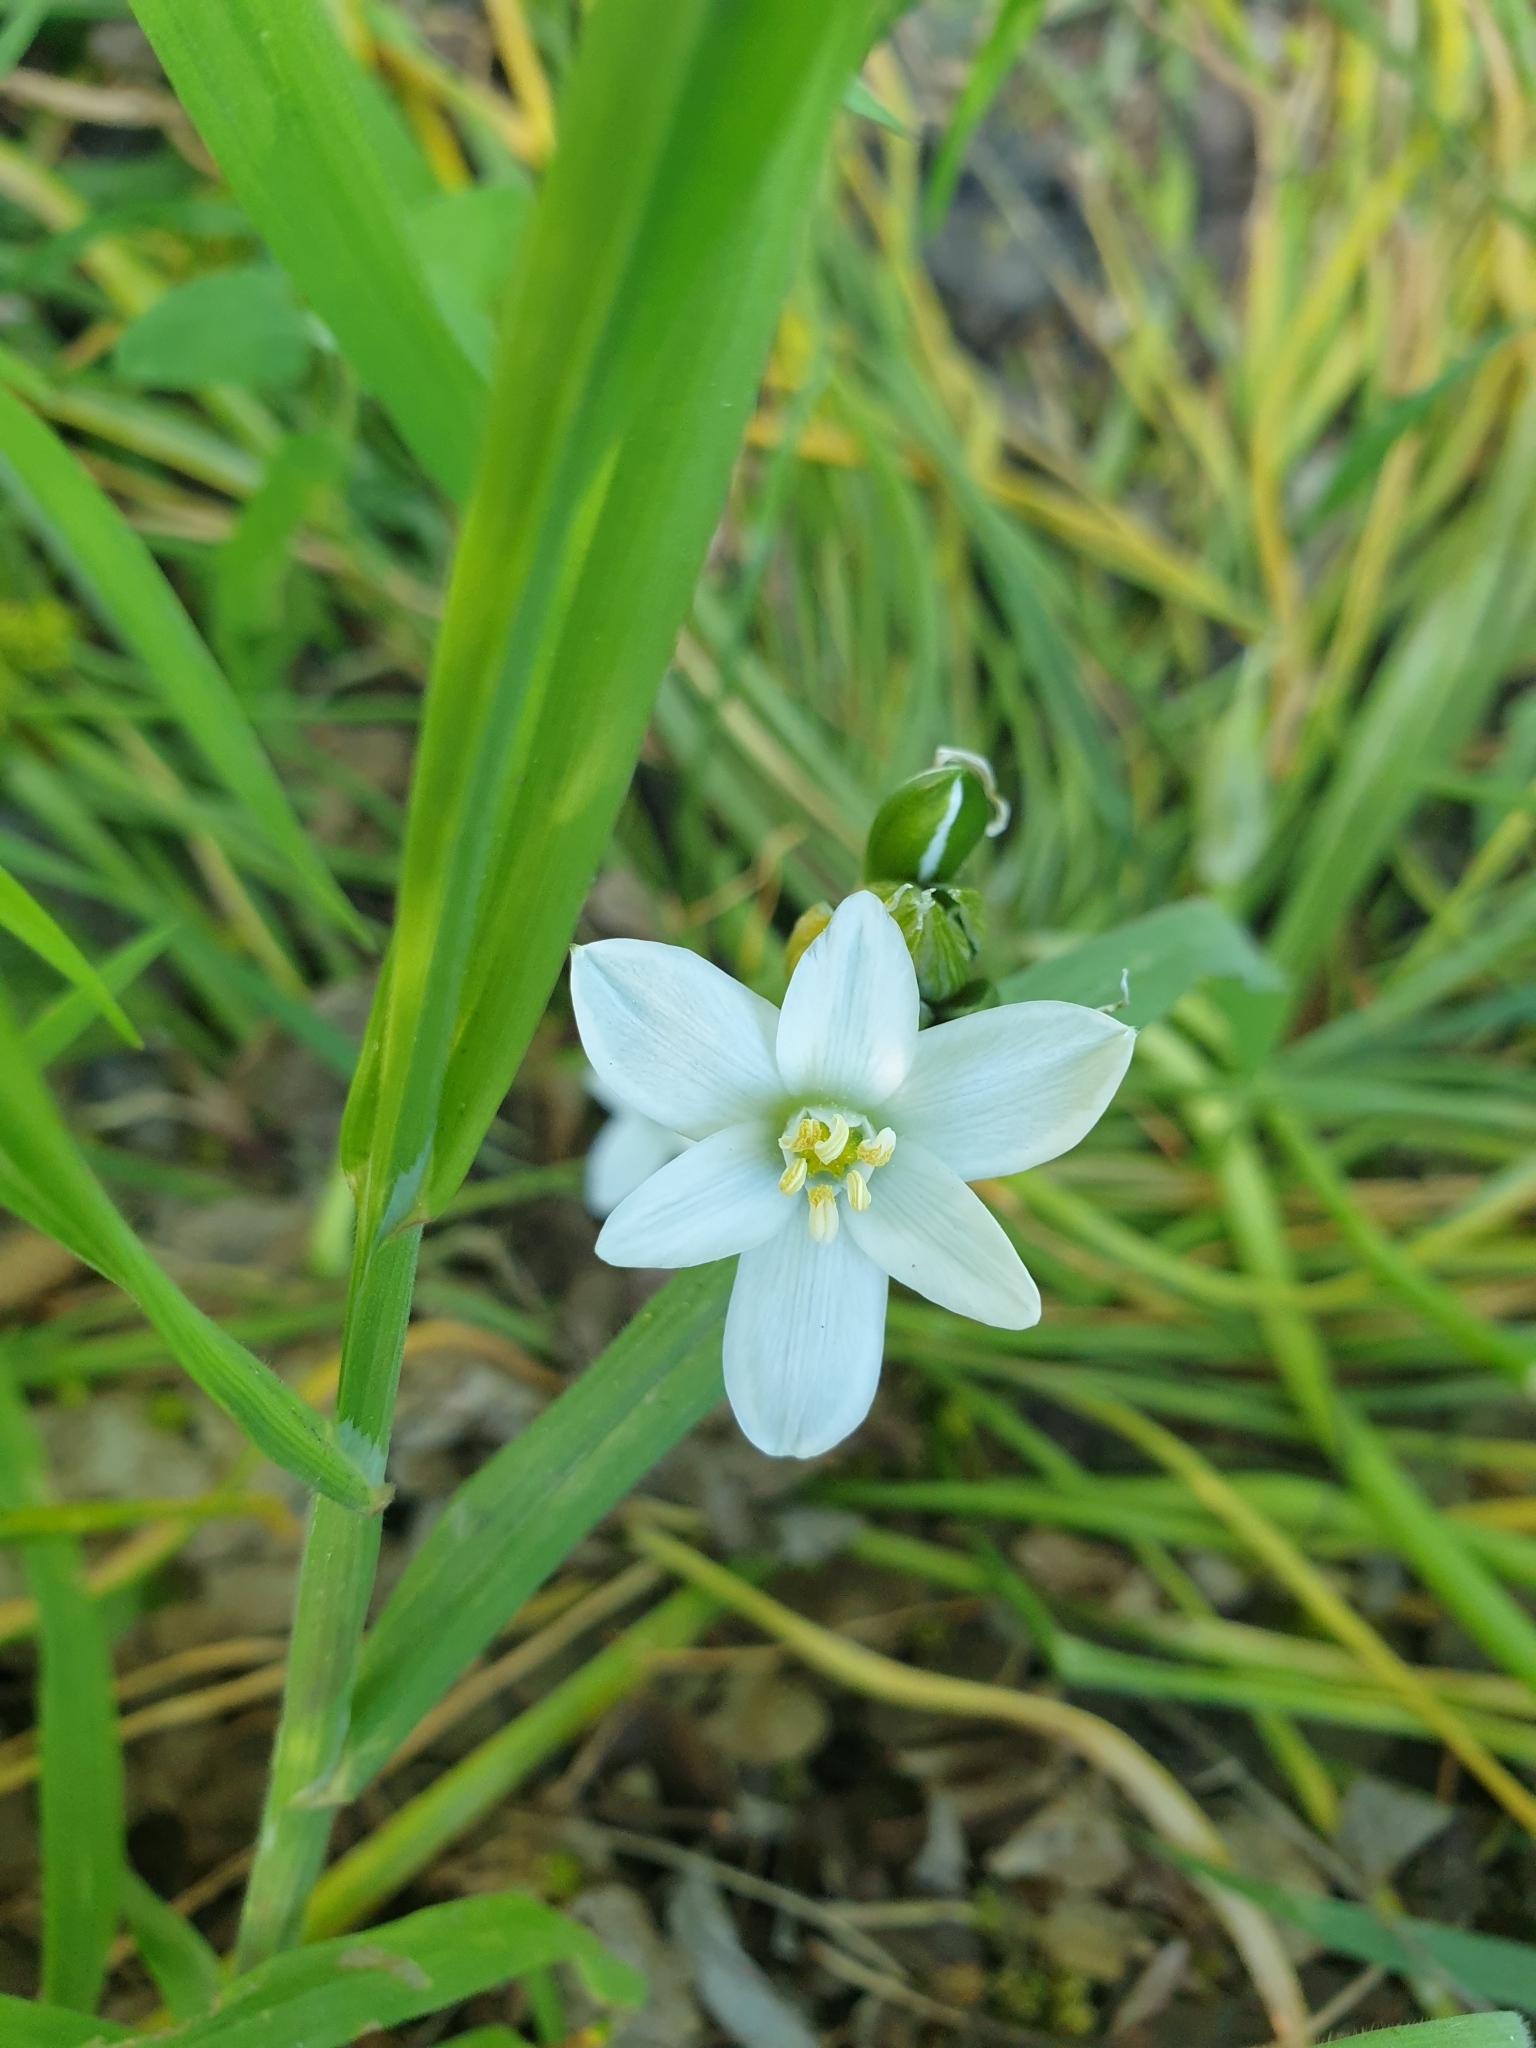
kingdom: Plantae
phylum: Tracheophyta
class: Liliopsida
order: Asparagales
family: Asparagaceae
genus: Ornithogalum
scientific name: Ornithogalum umbellatum
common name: Garden star-of-bethlehem
